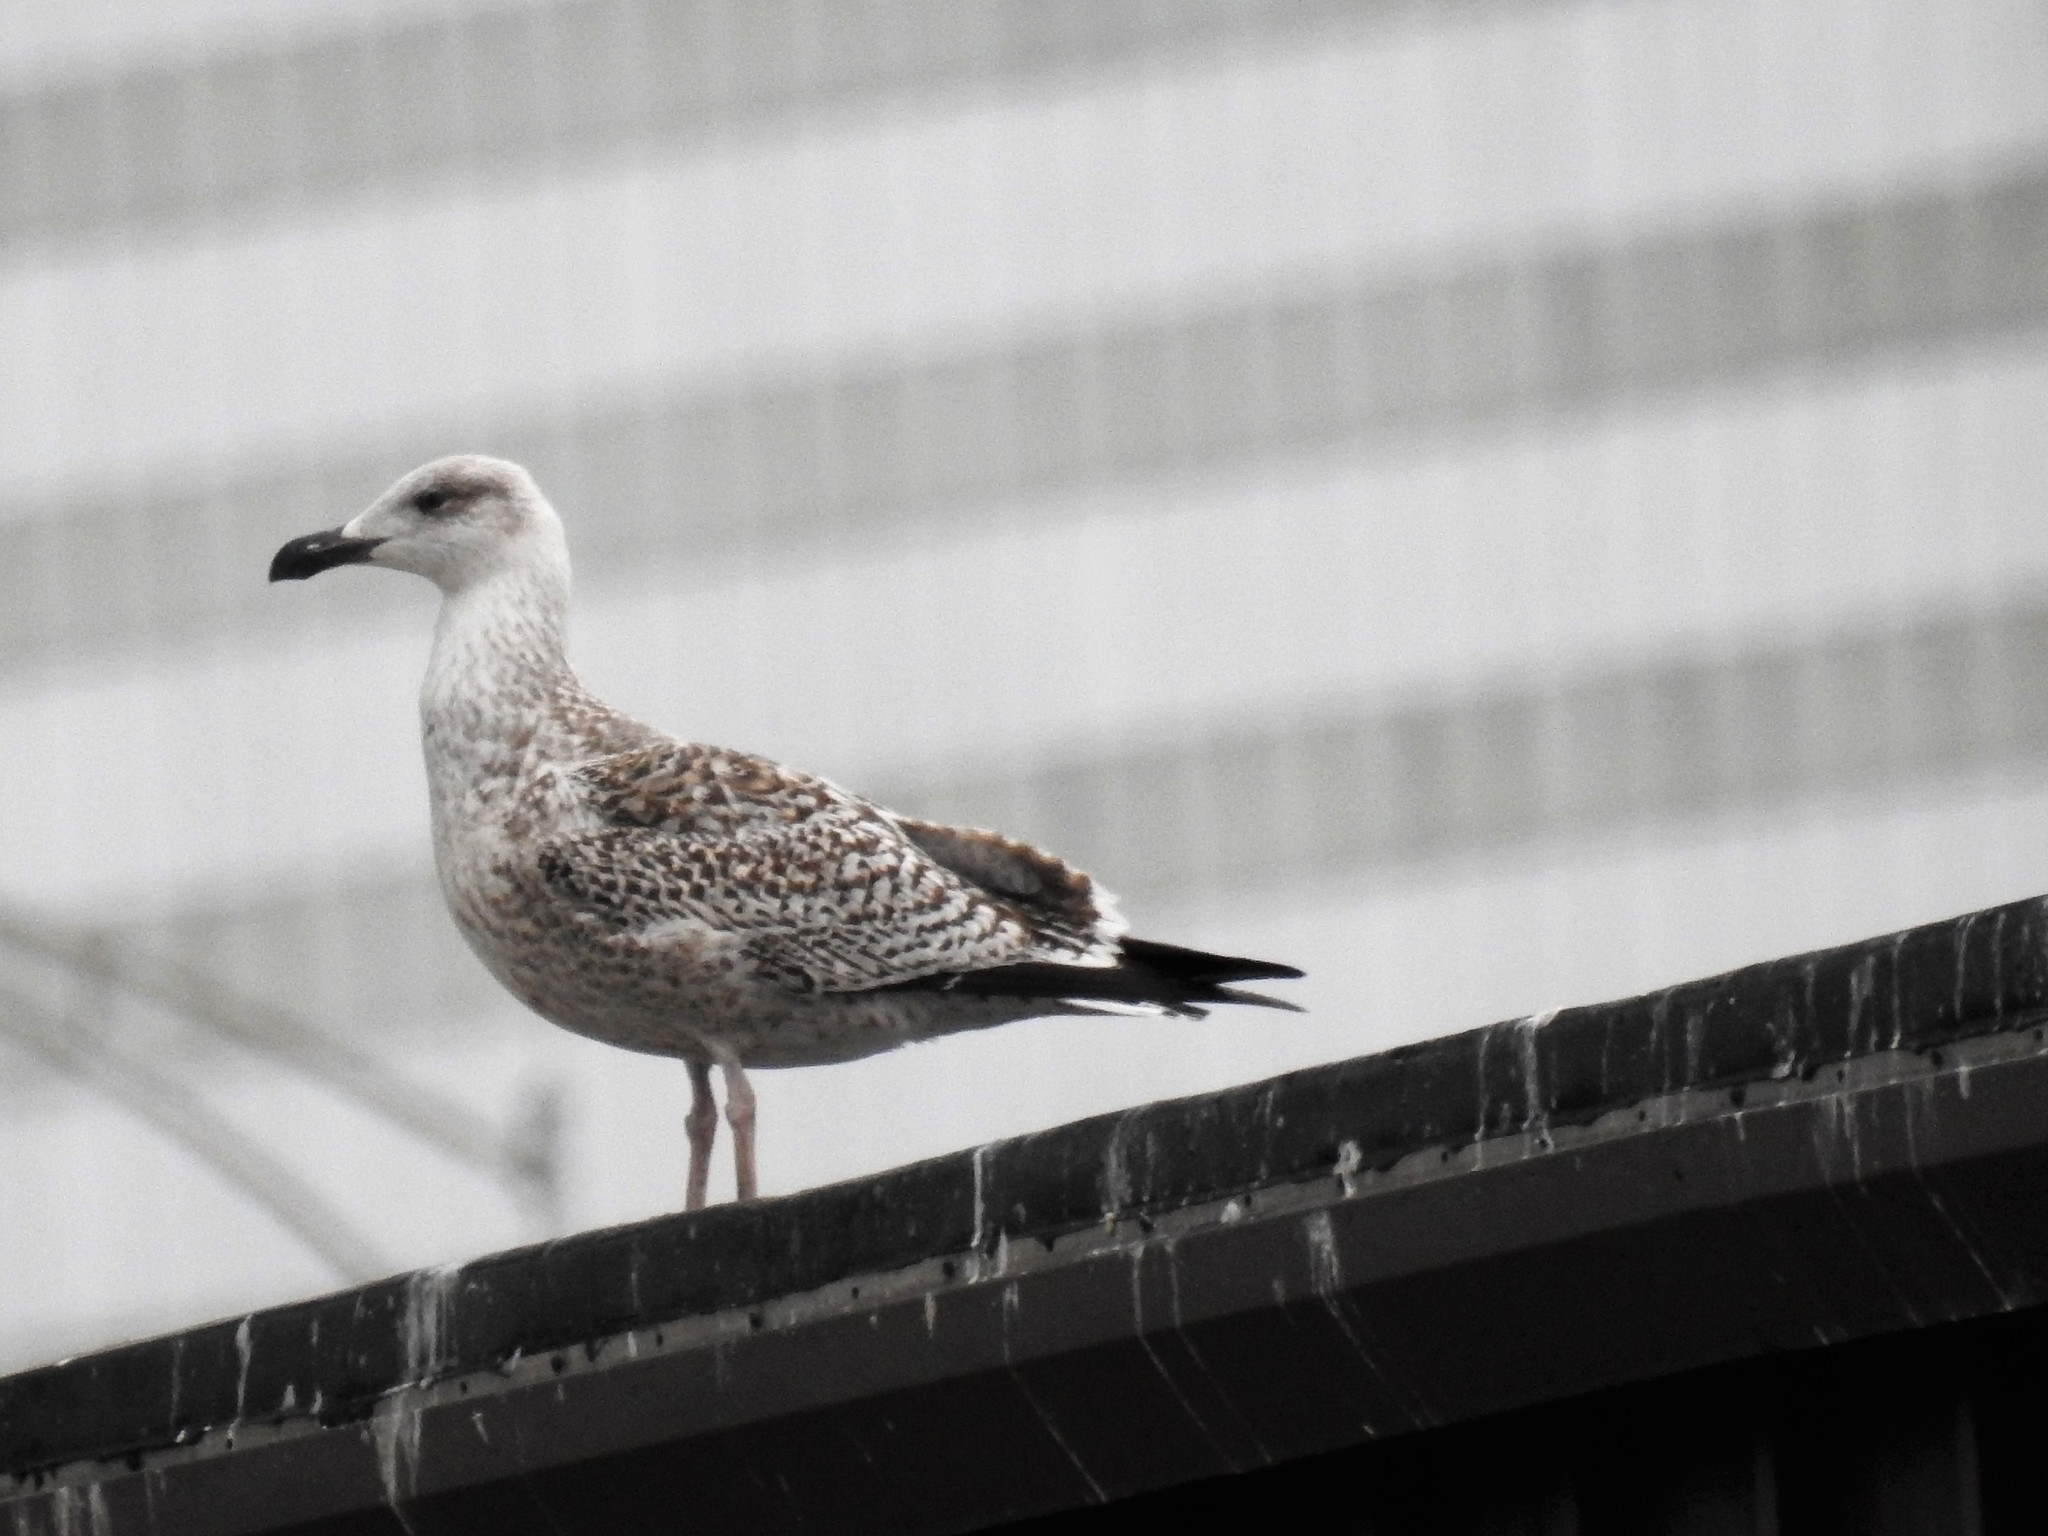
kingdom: Animalia
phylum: Chordata
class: Aves
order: Charadriiformes
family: Laridae
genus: Larus
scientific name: Larus marinus
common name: Great black-backed gull
